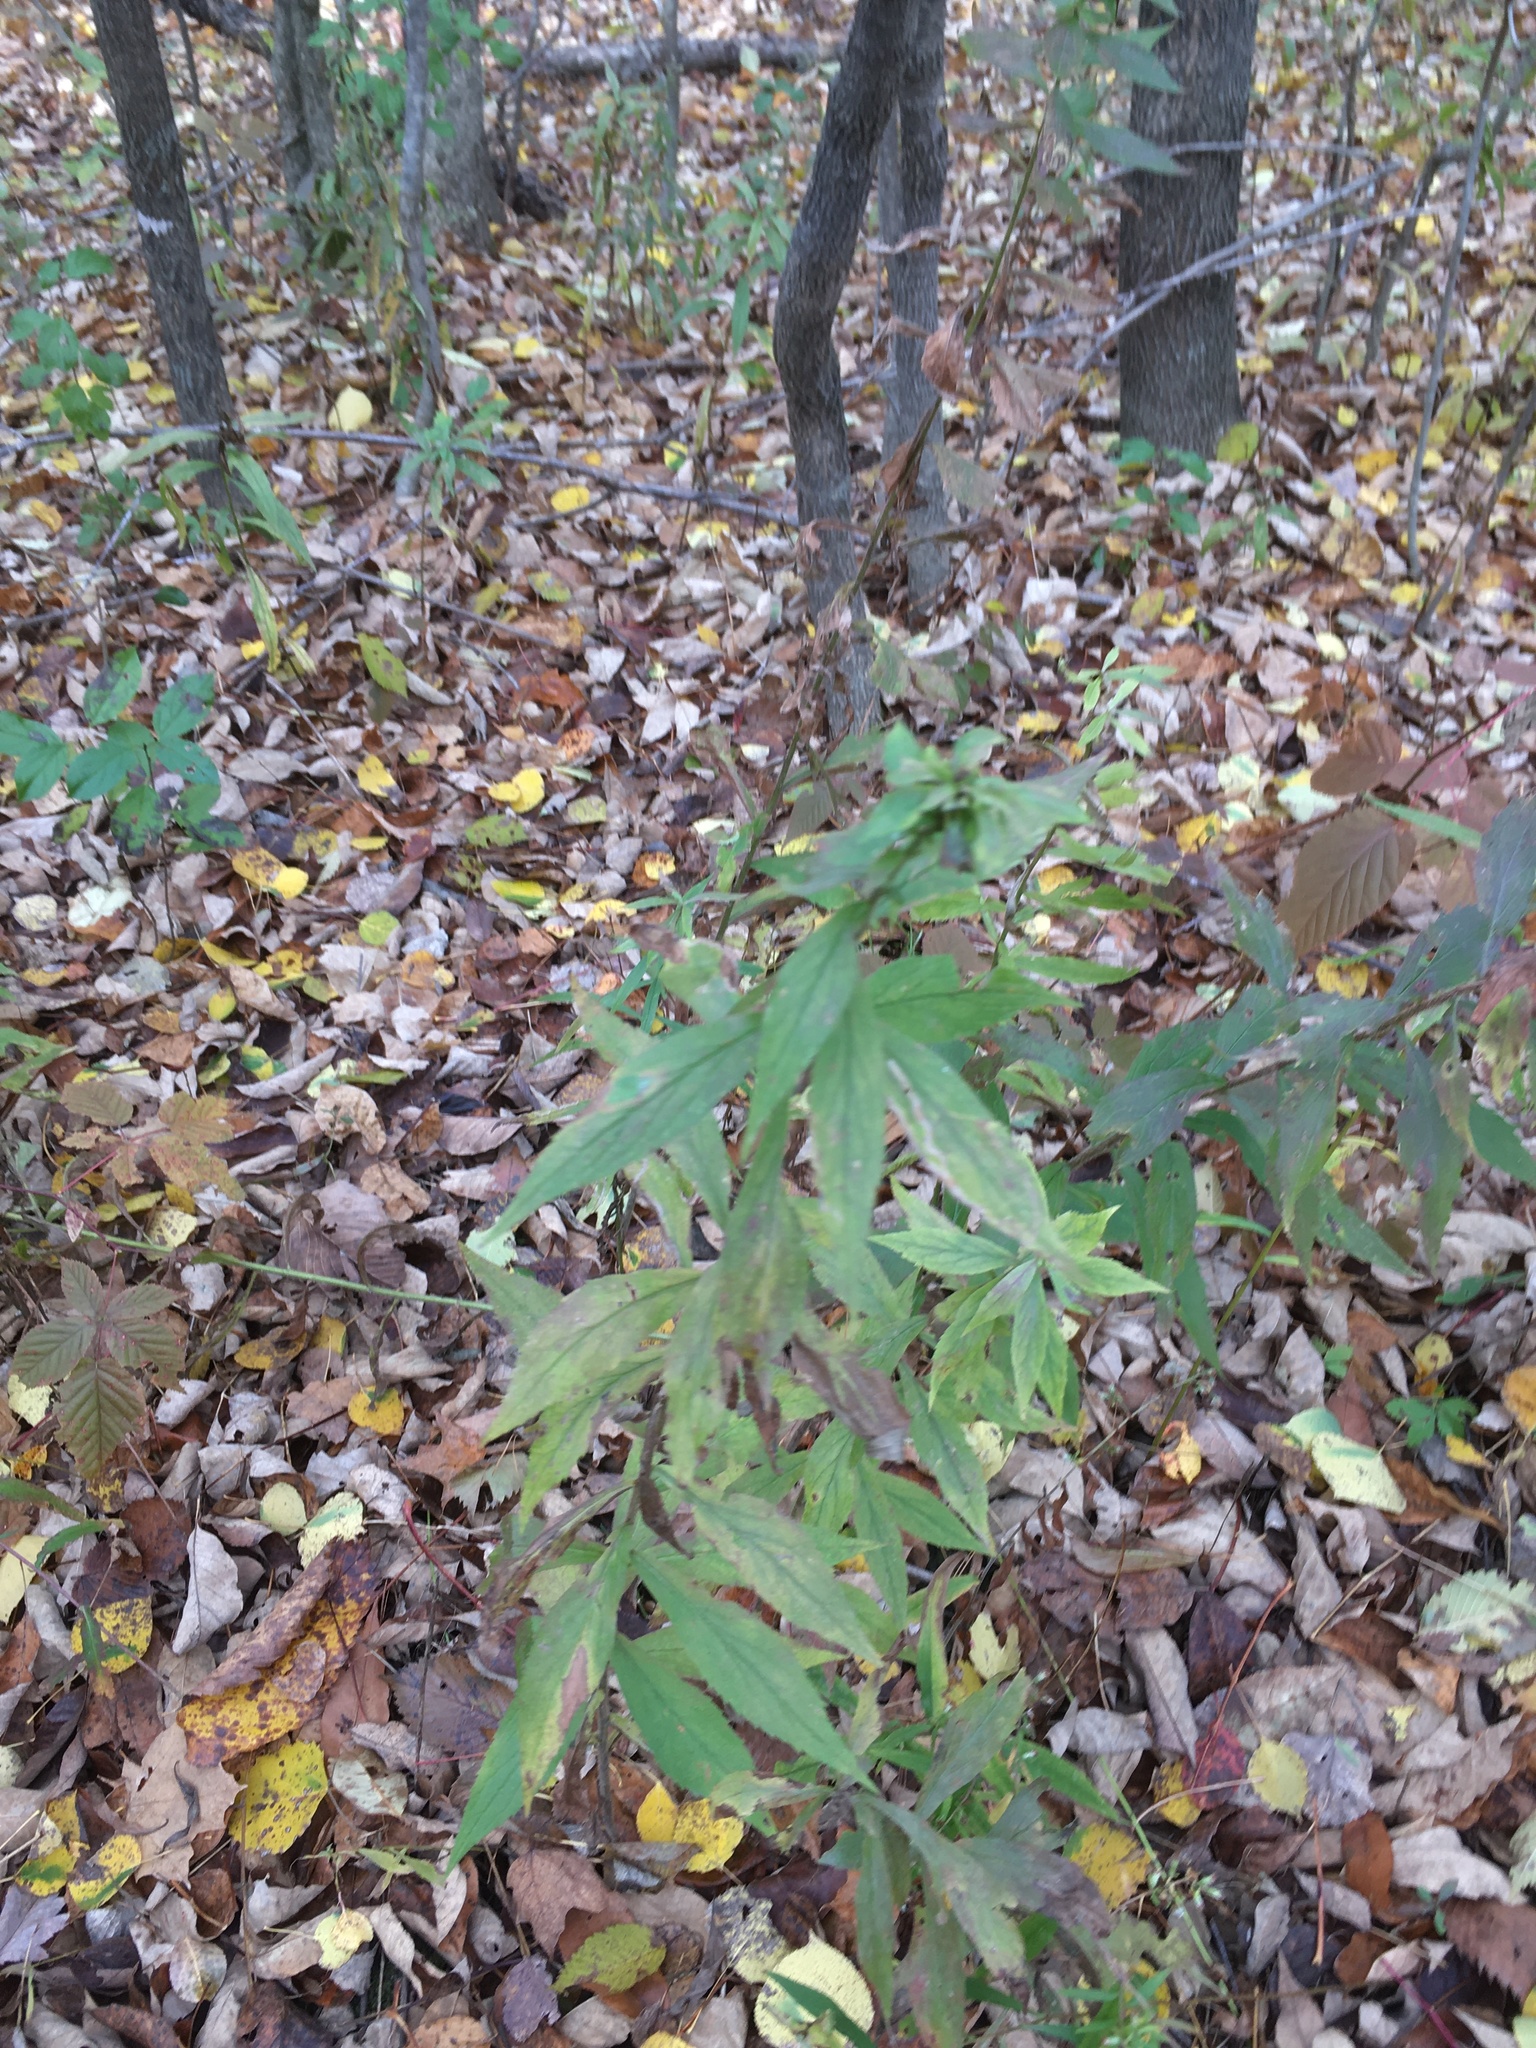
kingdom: Plantae
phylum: Tracheophyta
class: Magnoliopsida
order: Asterales
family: Asteraceae
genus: Solidago
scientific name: Solidago rugosa
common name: Rough-stemmed goldenrod
